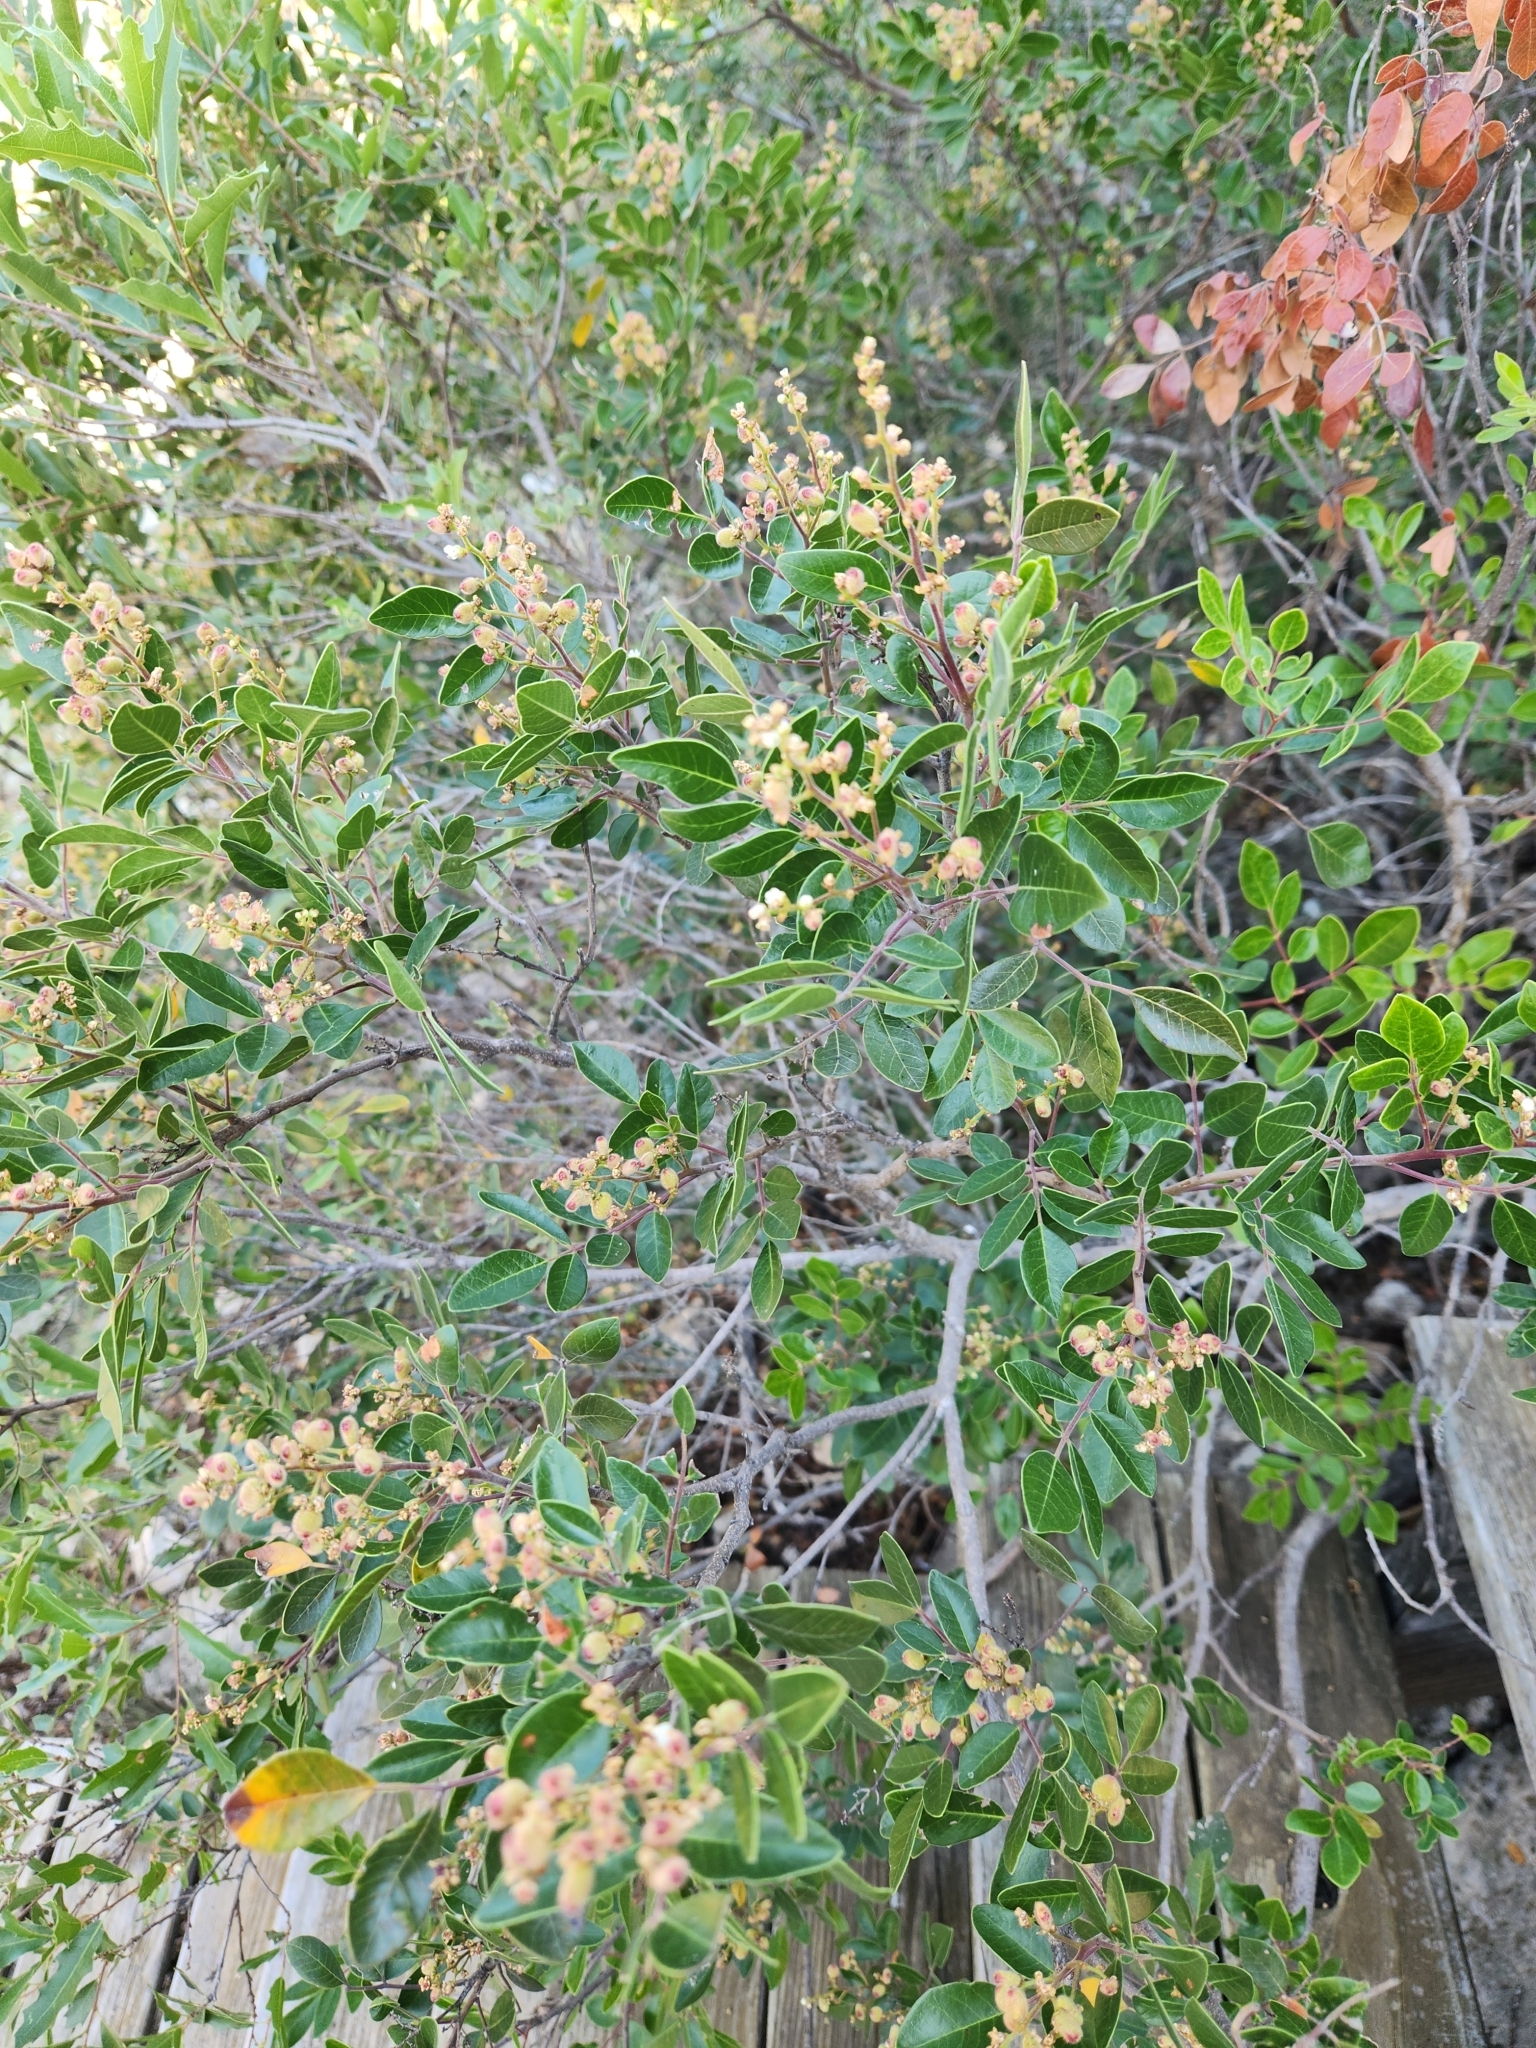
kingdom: Plantae
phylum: Tracheophyta
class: Magnoliopsida
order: Sapindales
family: Anacardiaceae
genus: Rhus
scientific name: Rhus virens
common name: Evergreen sumac
